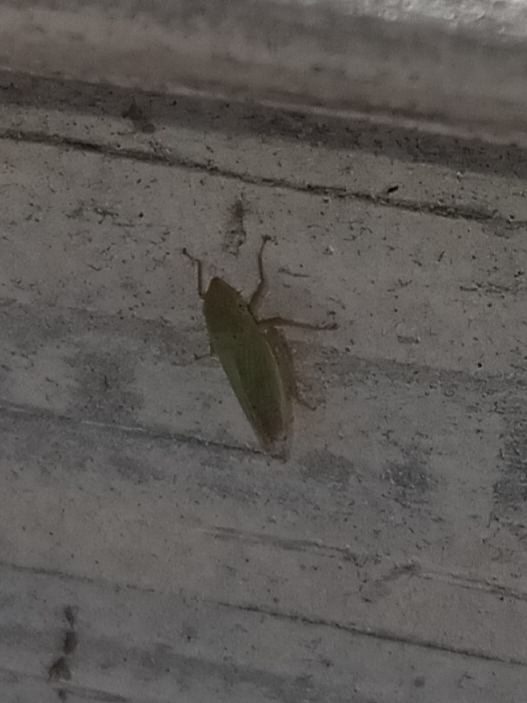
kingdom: Animalia
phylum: Arthropoda
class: Insecta
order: Hemiptera
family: Cicadellidae
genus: Draeculacephala
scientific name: Draeculacephala balli
